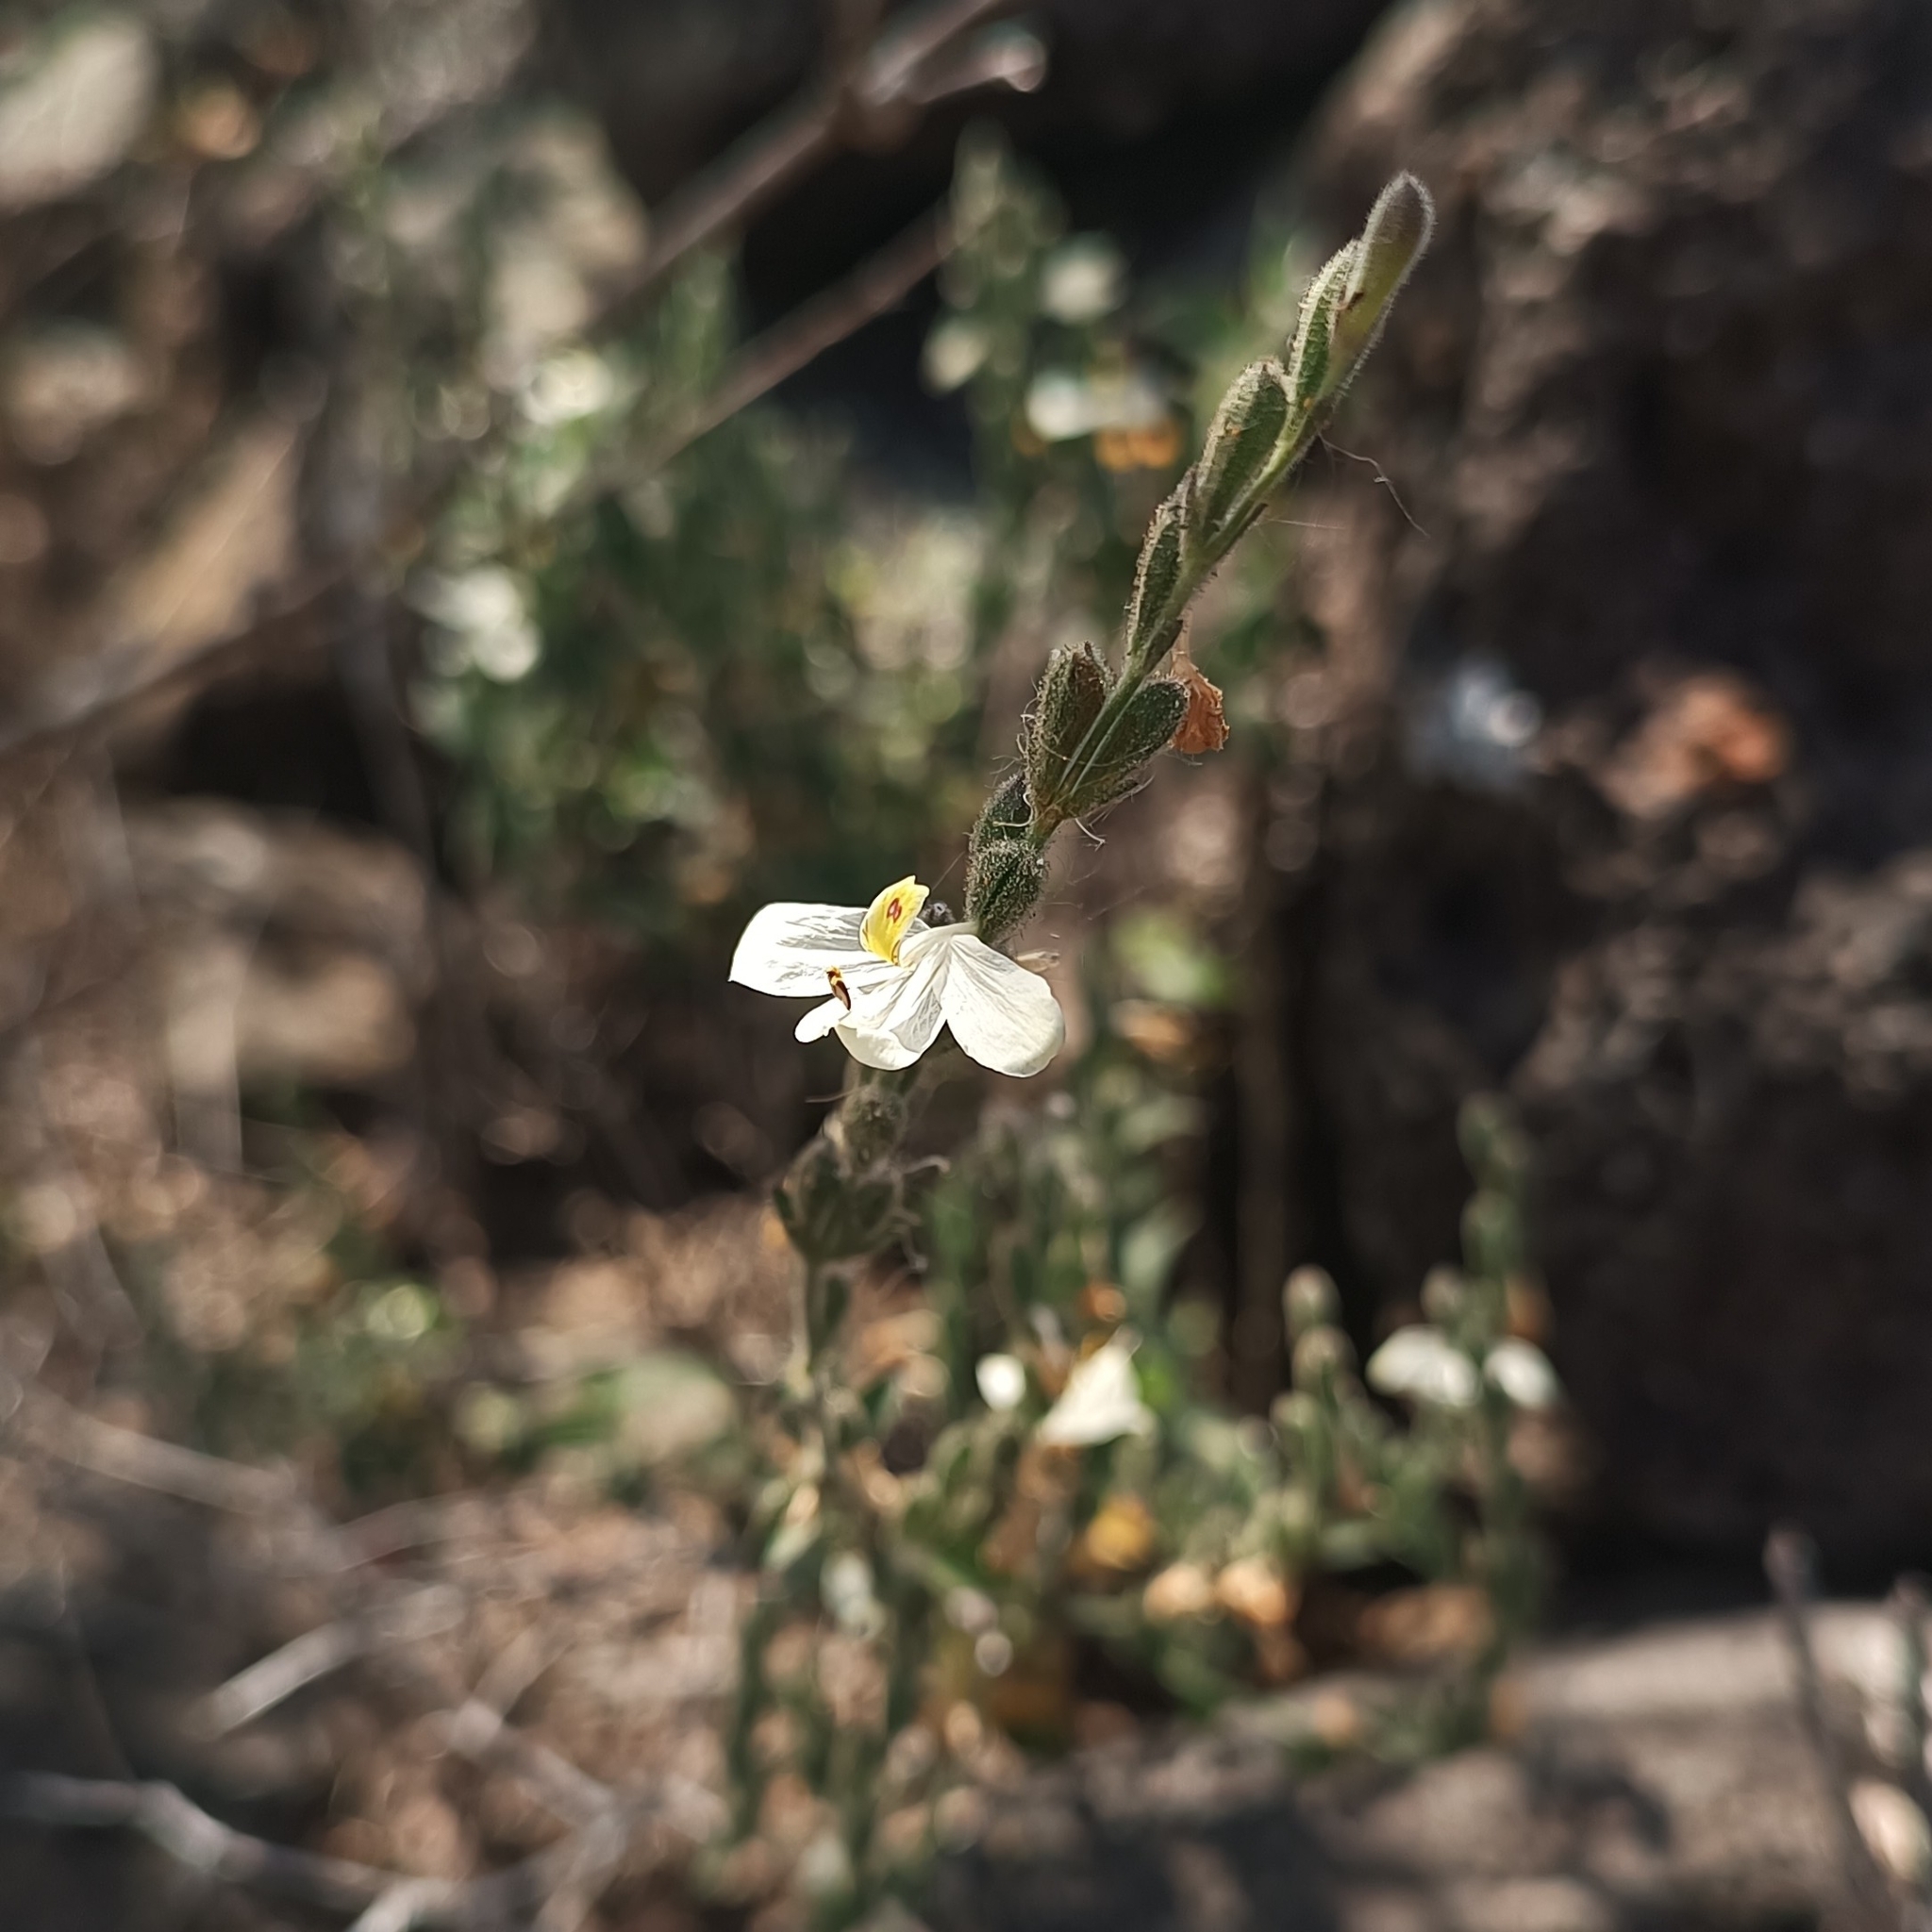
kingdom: Plantae
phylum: Tracheophyta
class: Magnoliopsida
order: Lamiales
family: Acanthaceae
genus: Henrya
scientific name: Henrya insularis
